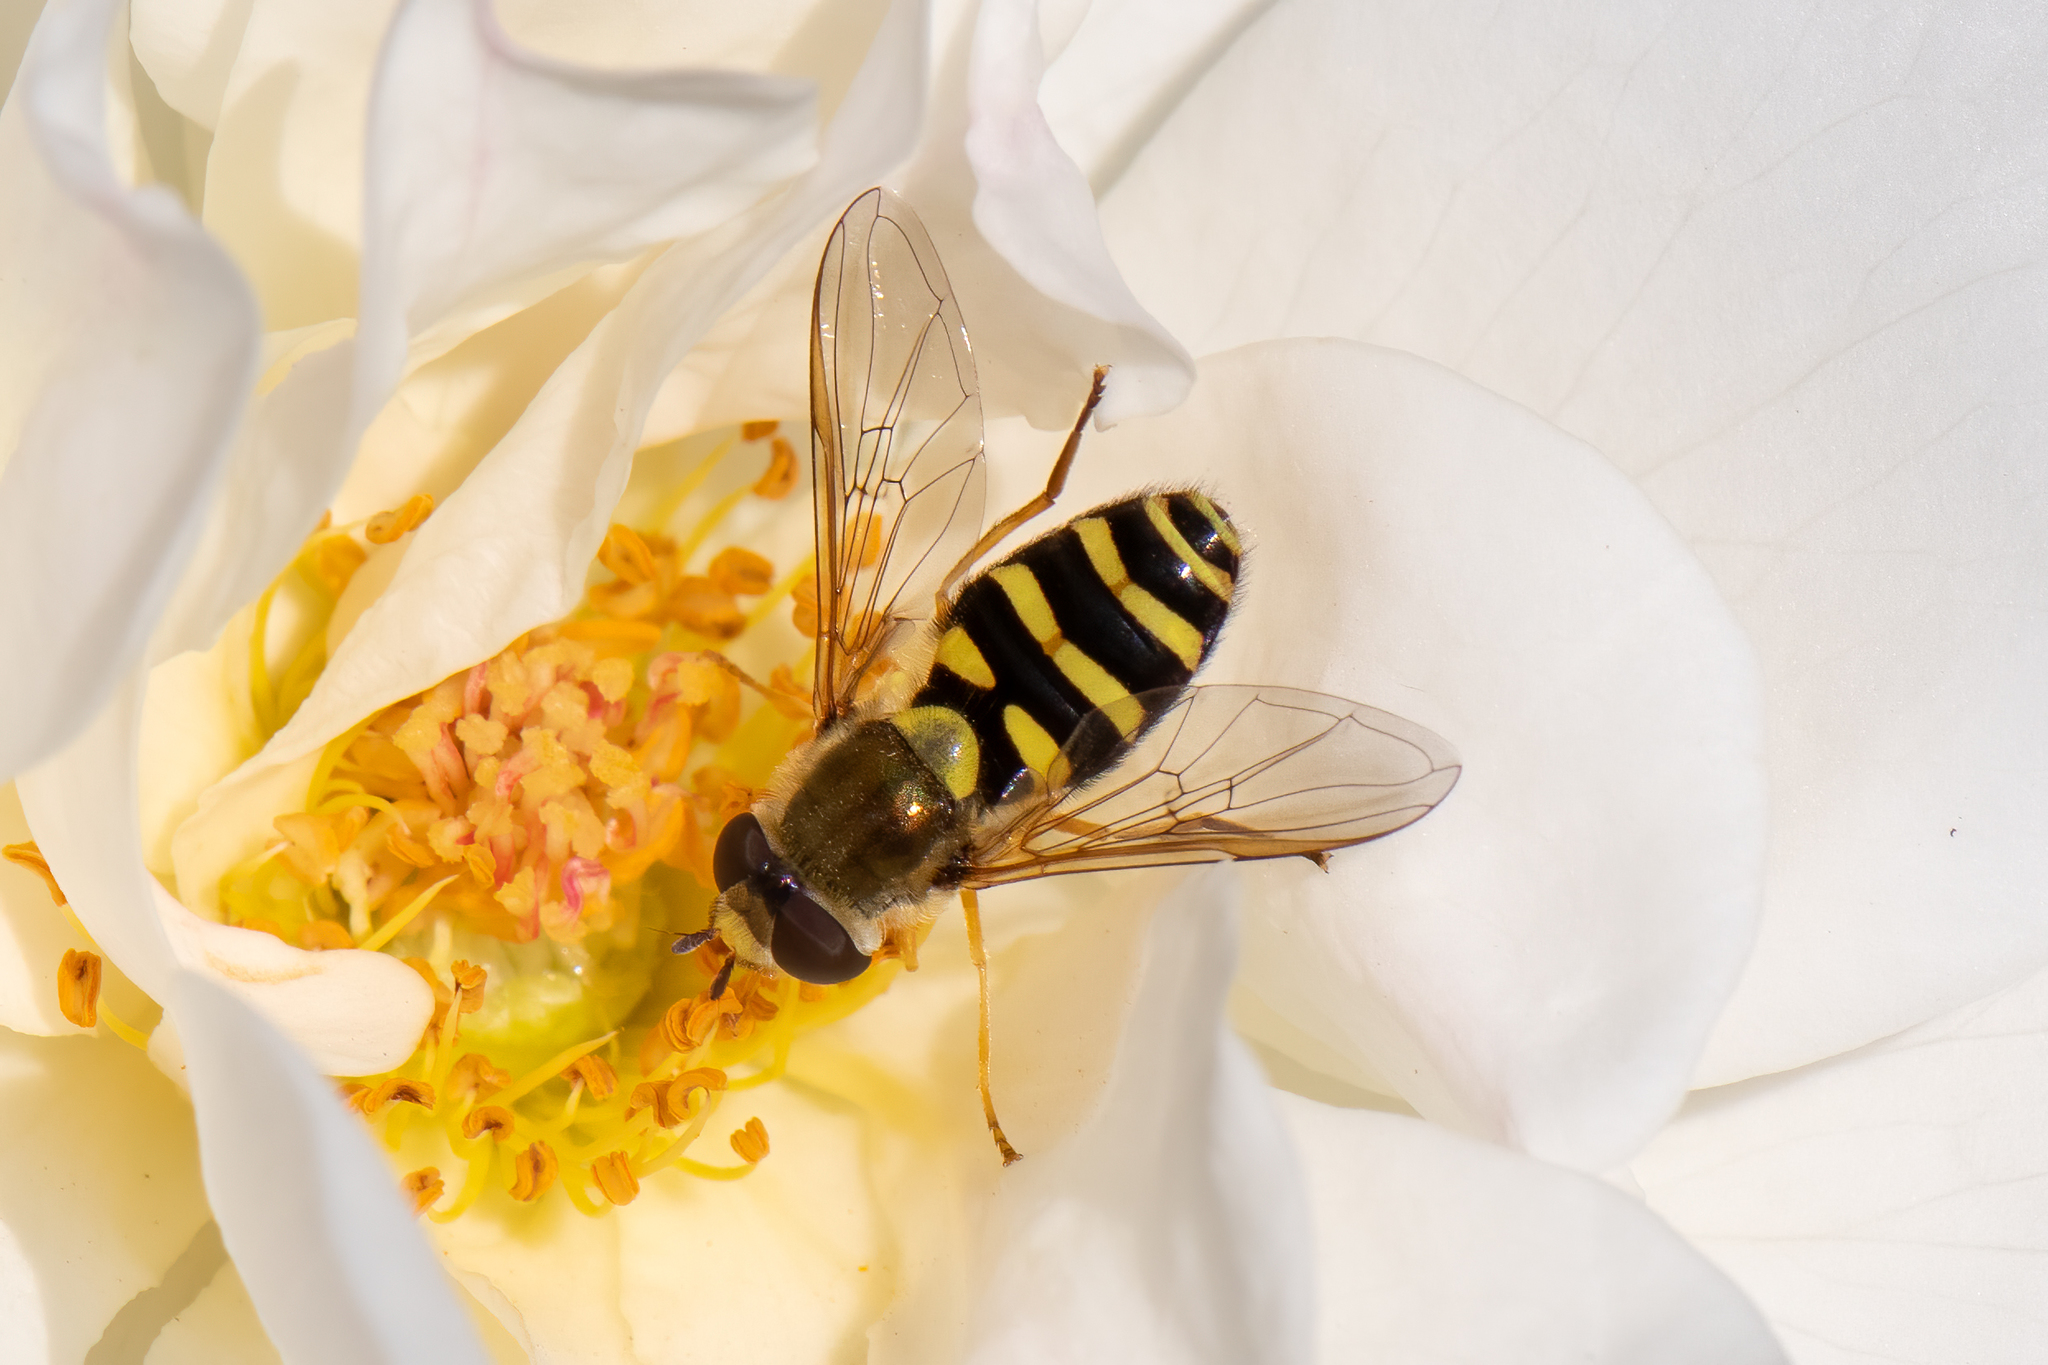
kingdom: Animalia
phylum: Arthropoda
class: Insecta
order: Diptera
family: Syrphidae
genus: Syrphus
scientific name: Syrphus opinator
